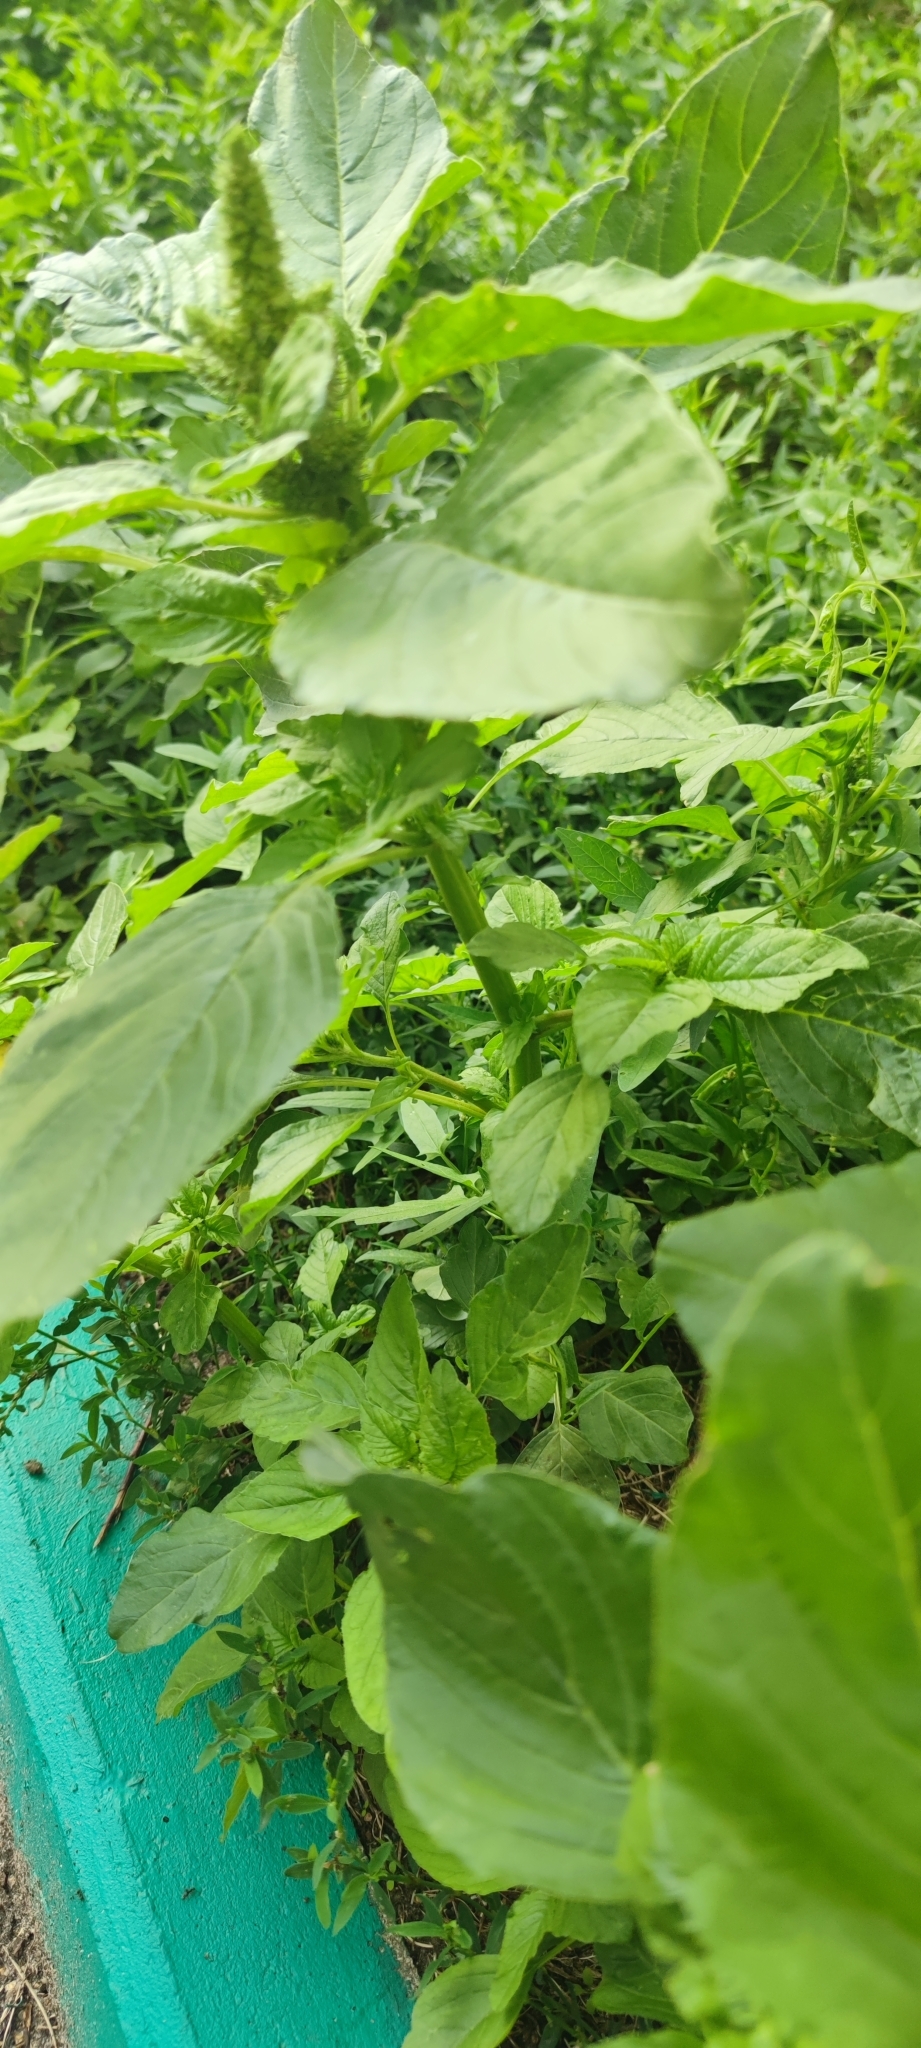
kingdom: Plantae
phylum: Tracheophyta
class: Magnoliopsida
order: Caryophyllales
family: Amaranthaceae
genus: Amaranthus
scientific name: Amaranthus retroflexus
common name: Redroot amaranth
